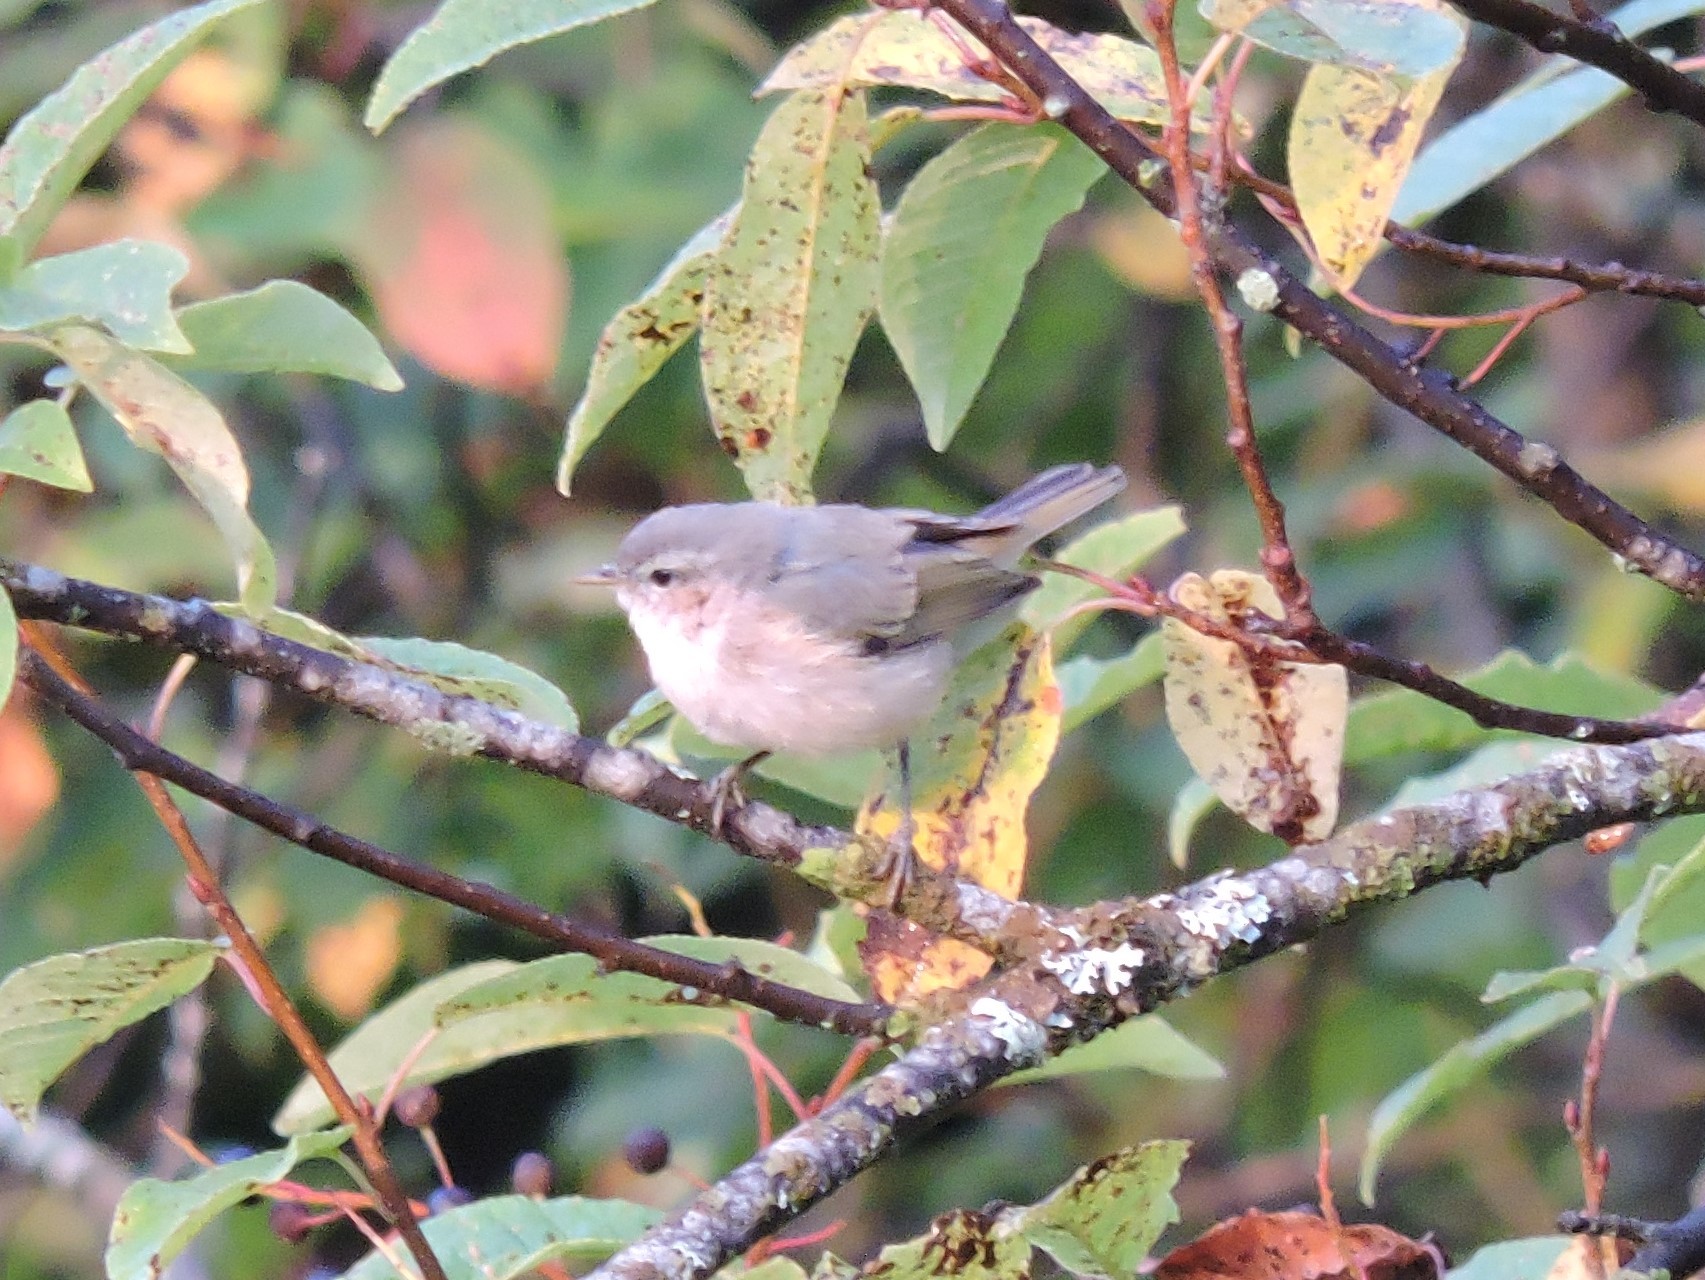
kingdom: Animalia
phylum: Chordata
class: Aves
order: Passeriformes
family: Phylloscopidae
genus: Phylloscopus
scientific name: Phylloscopus collybita
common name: Common chiffchaff
